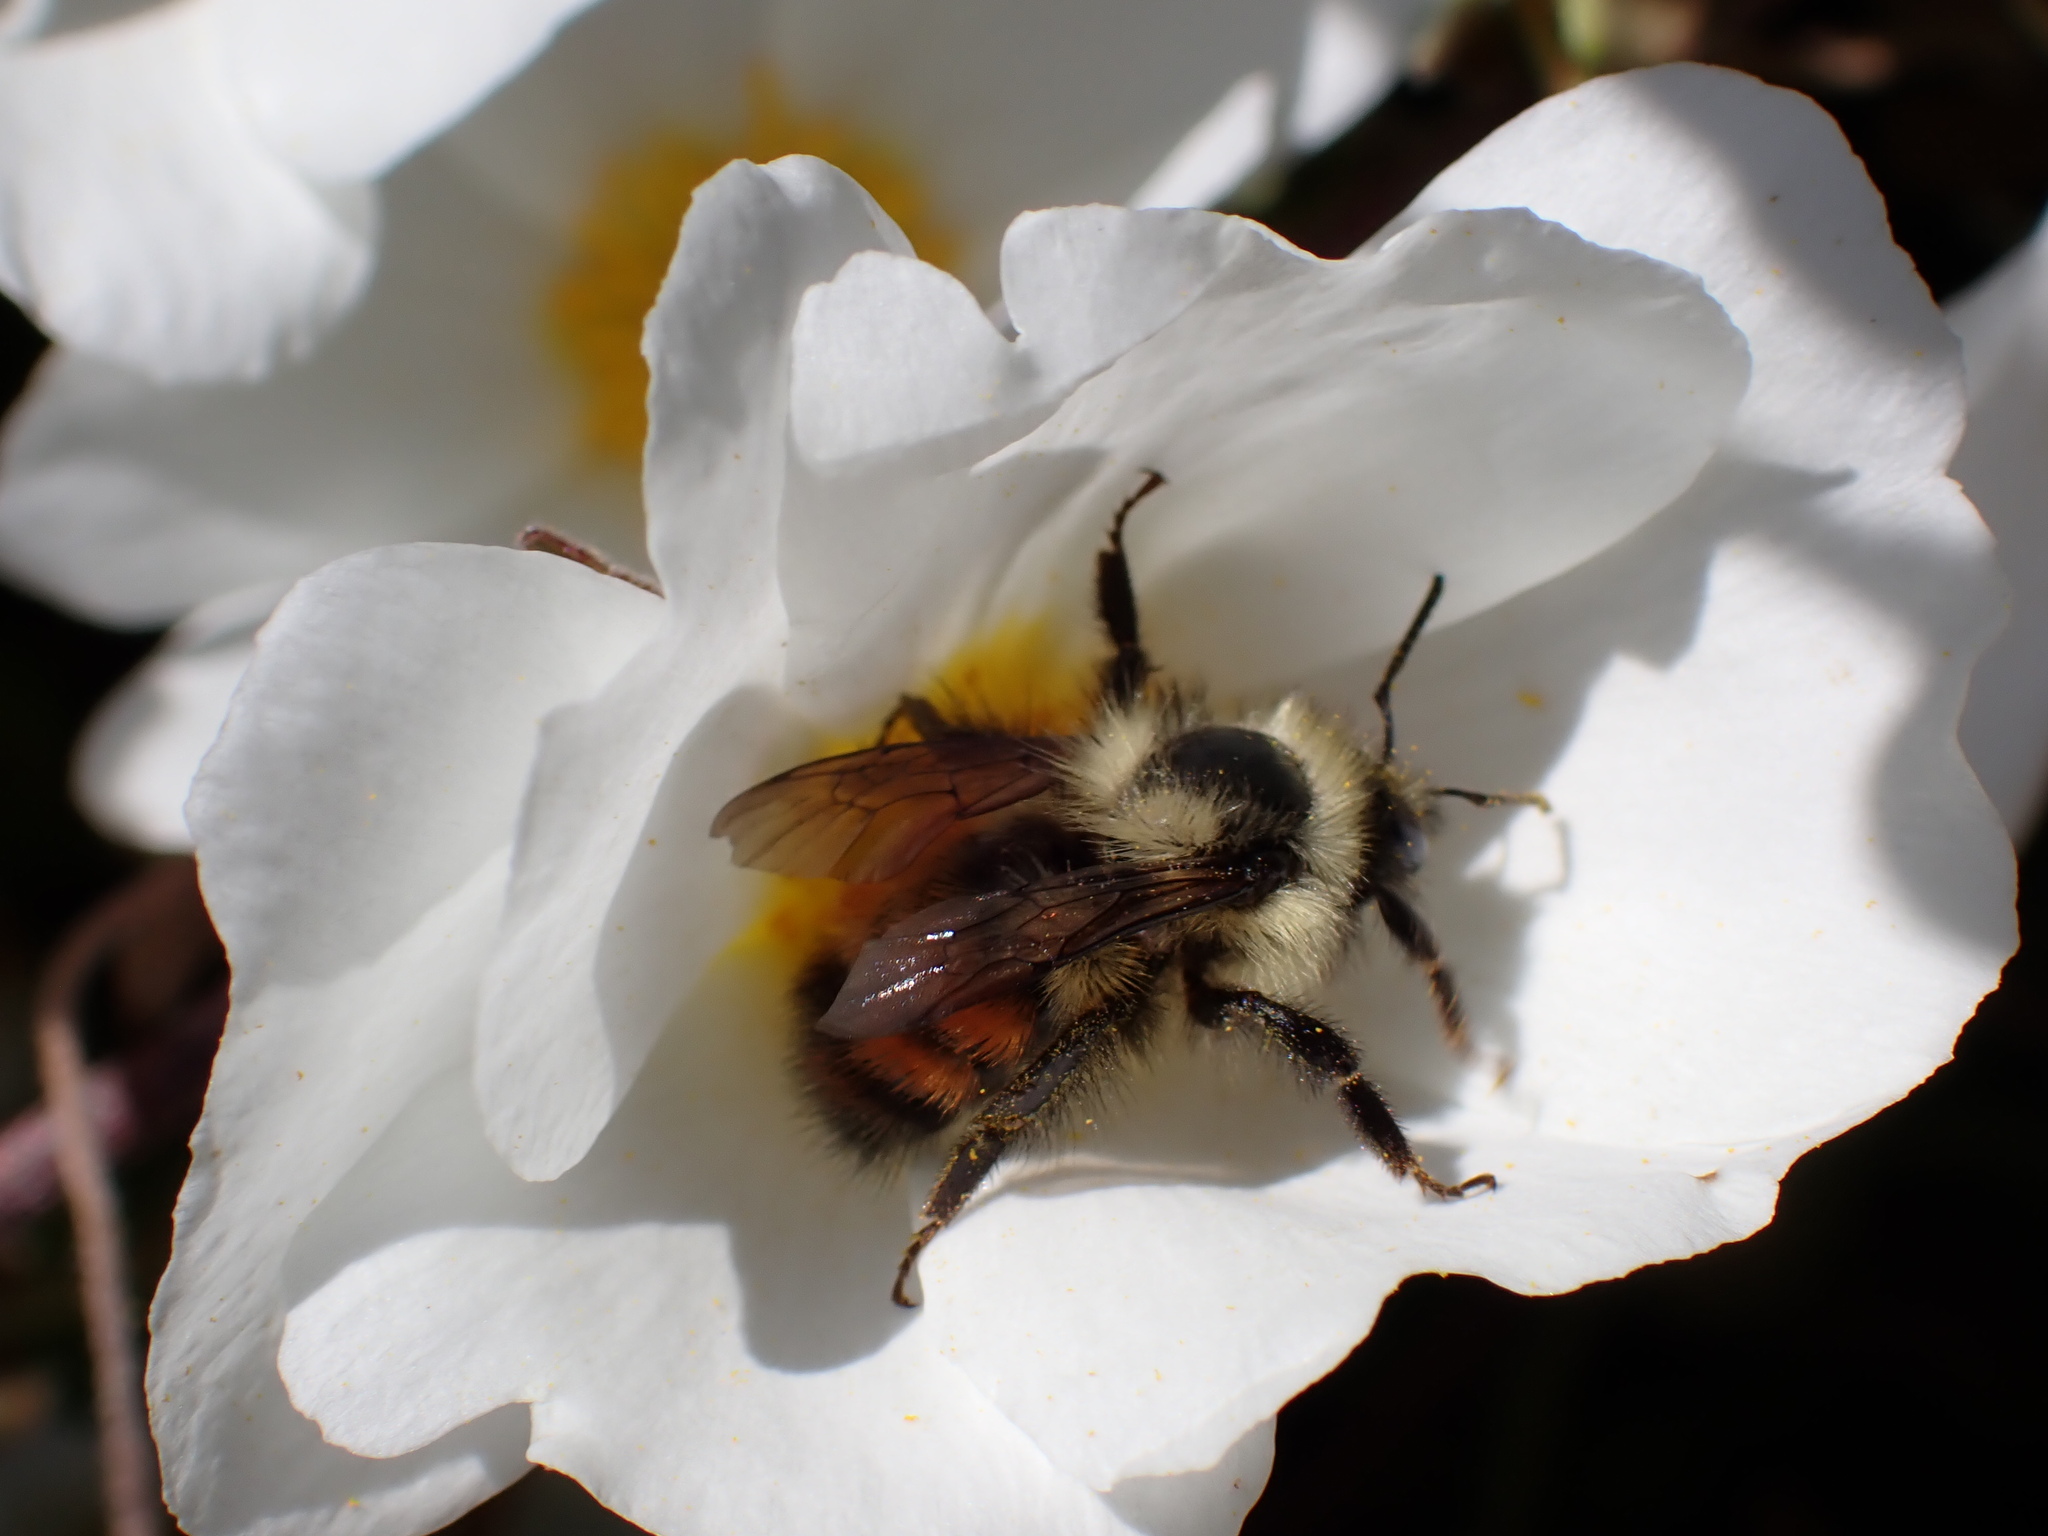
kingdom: Animalia
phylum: Arthropoda
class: Insecta
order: Hymenoptera
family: Apidae
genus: Bombus
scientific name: Bombus melanopygus
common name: Black tail bumble bee
